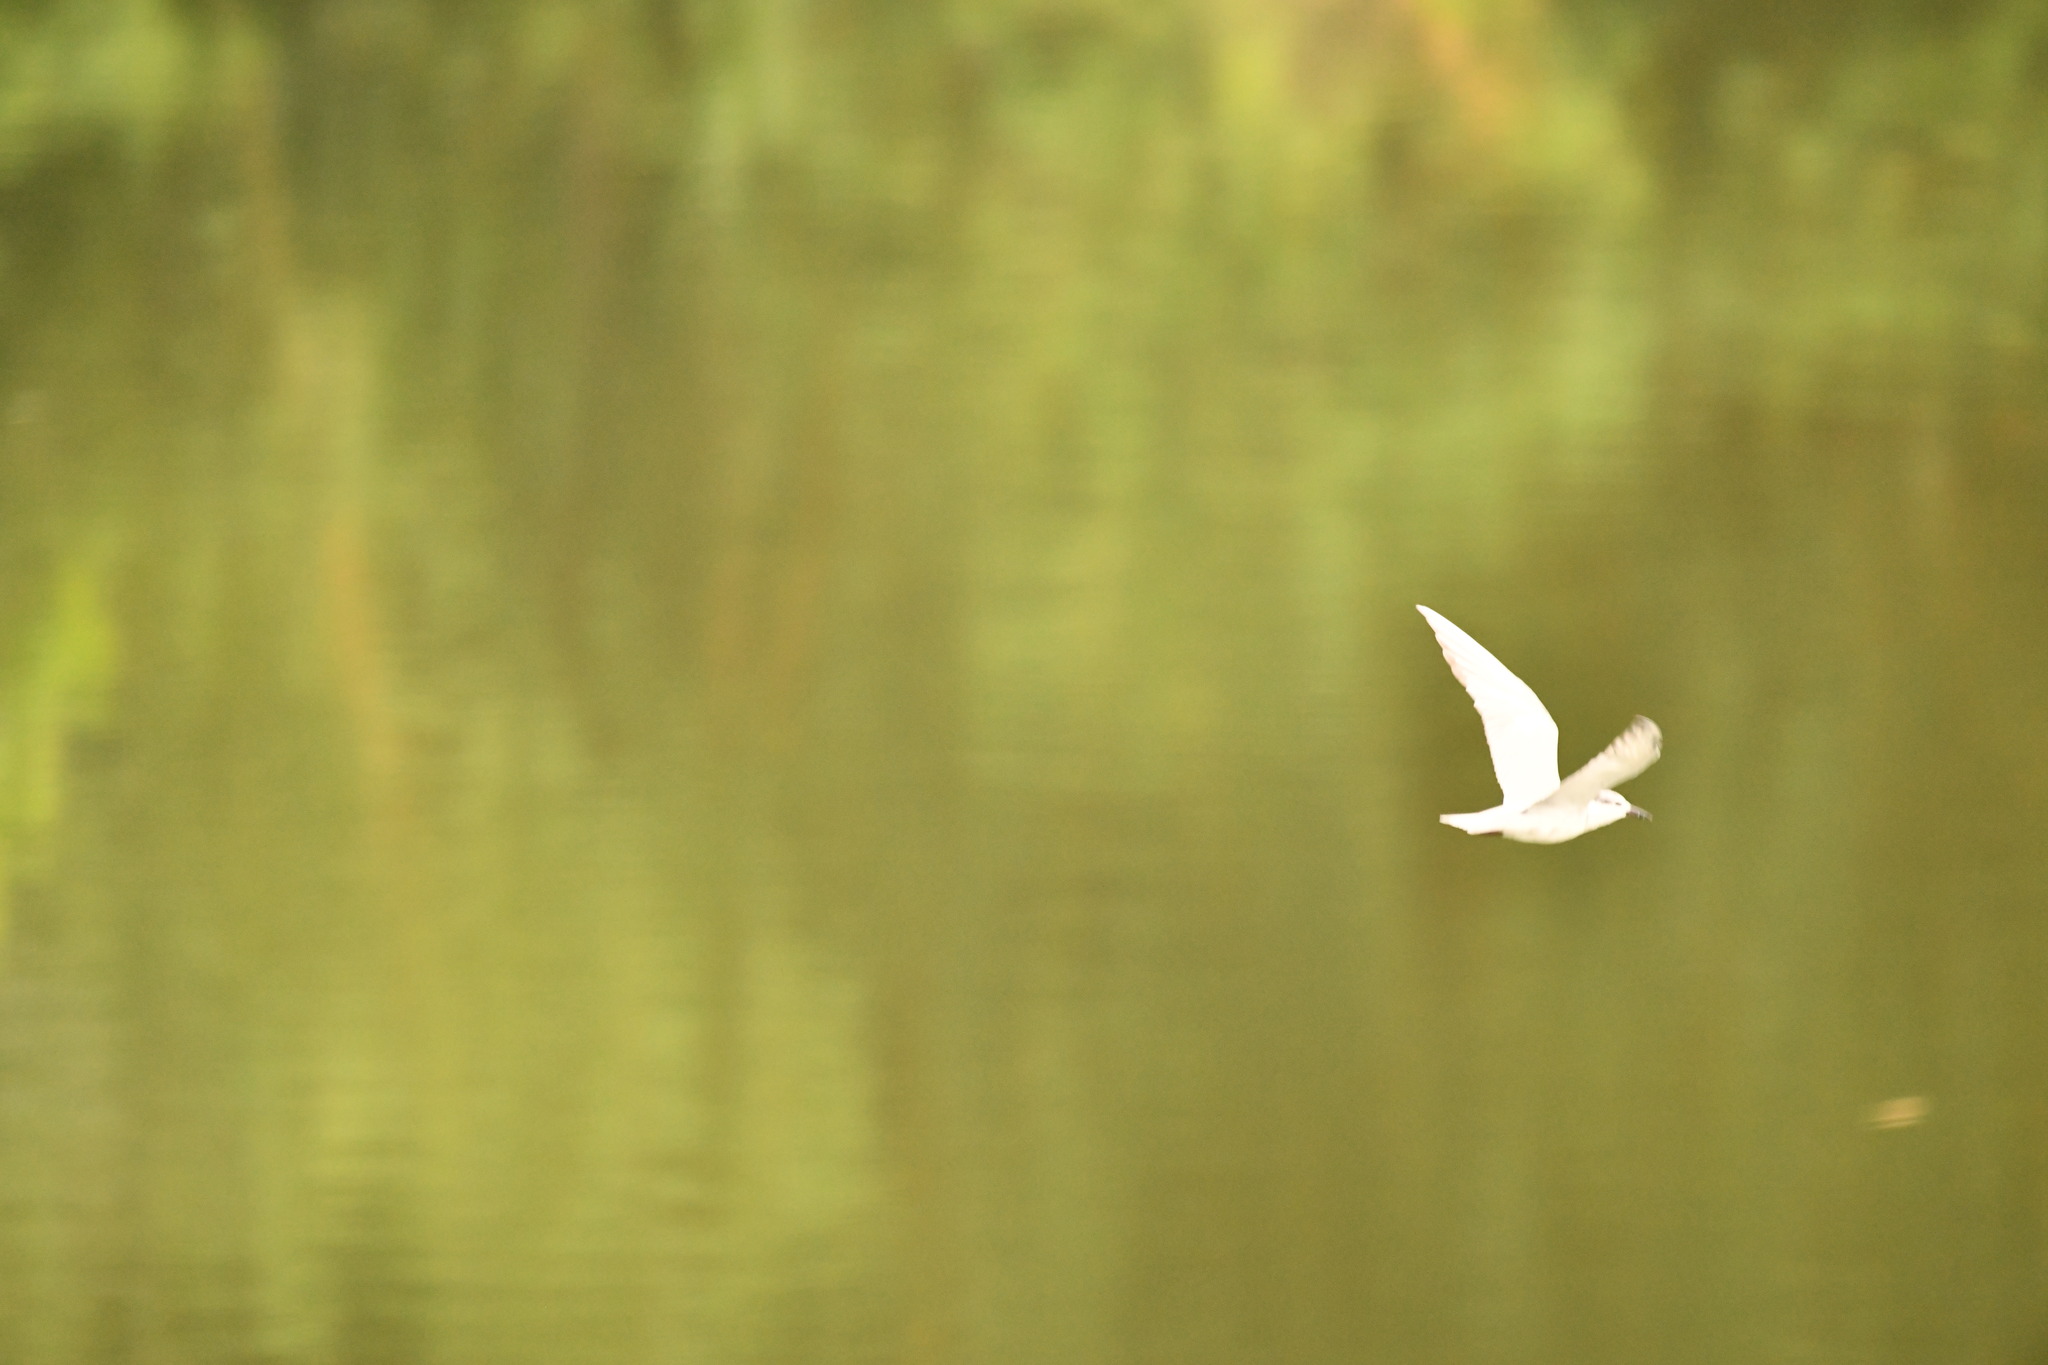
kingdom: Animalia
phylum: Chordata
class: Aves
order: Charadriiformes
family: Laridae
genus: Chlidonias
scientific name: Chlidonias hybrida
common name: Whiskered tern
